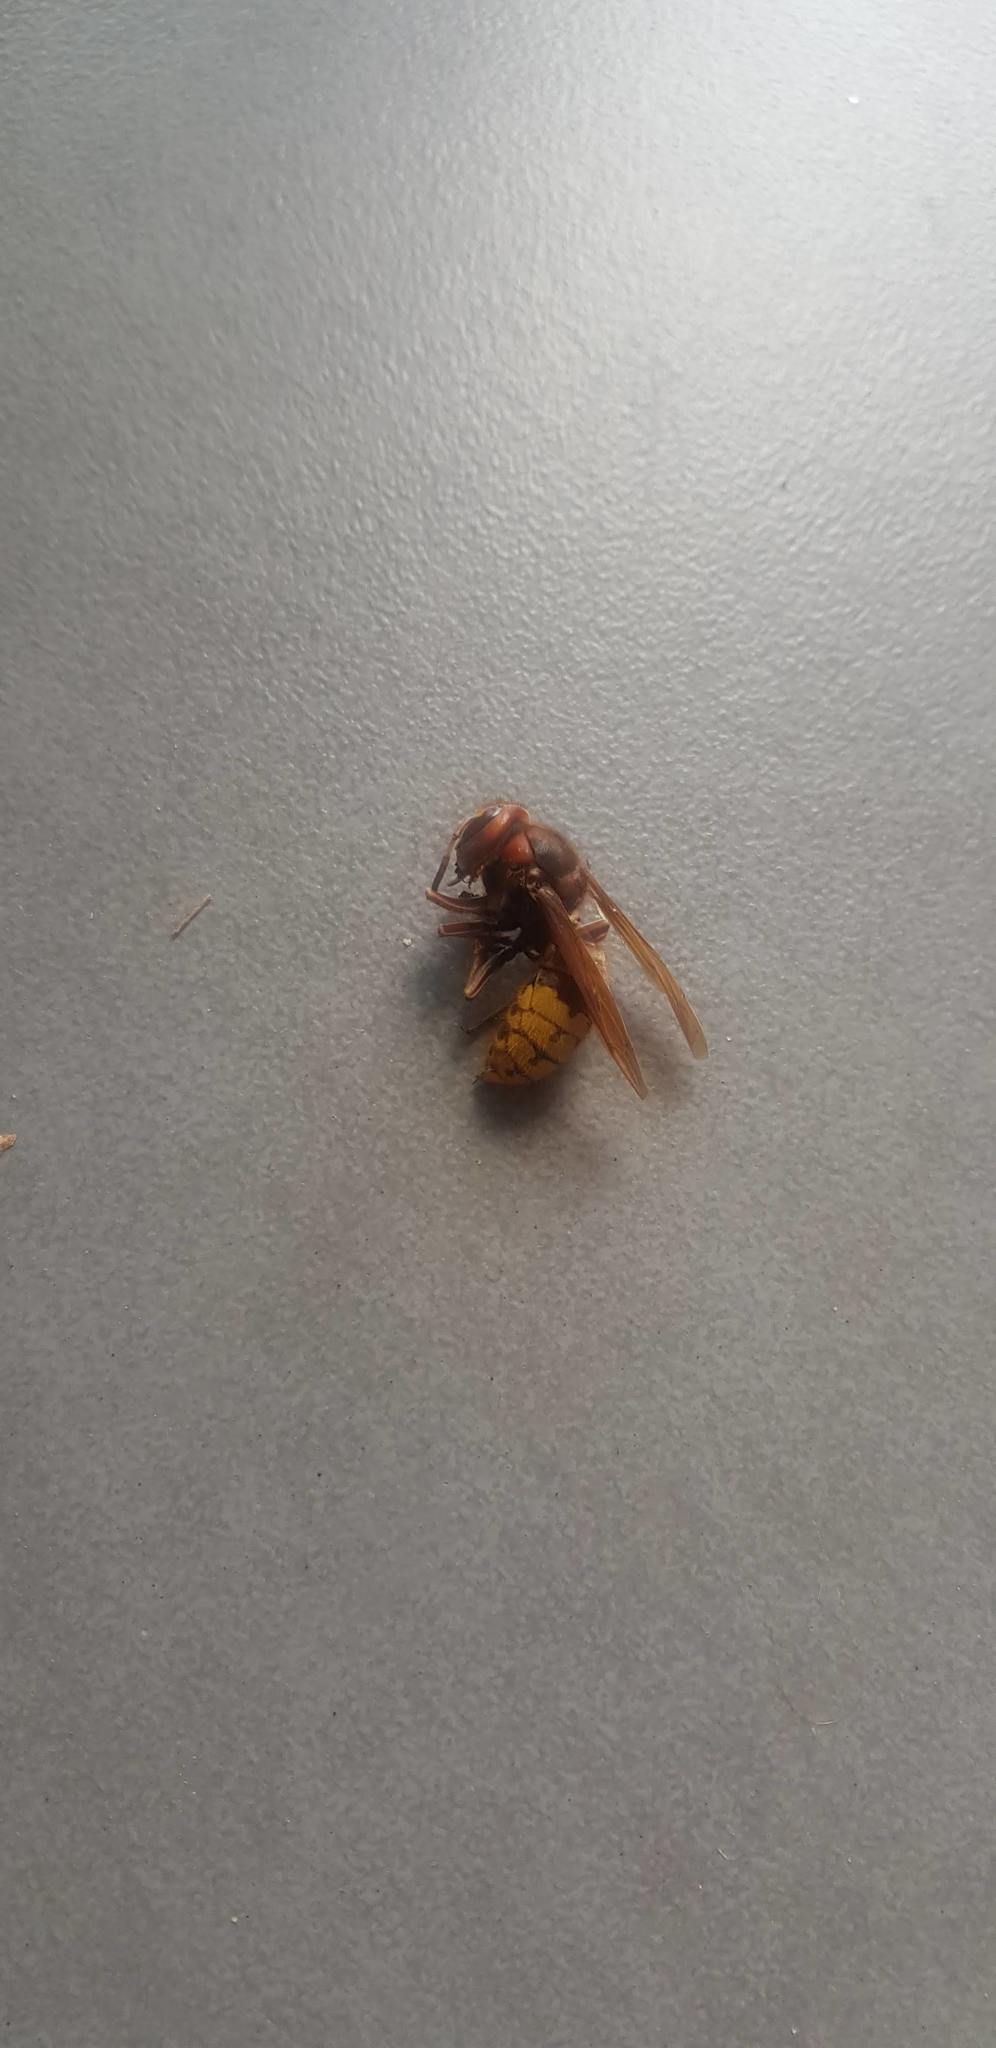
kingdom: Animalia
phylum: Arthropoda
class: Insecta
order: Hymenoptera
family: Vespidae
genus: Vespa
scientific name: Vespa crabro
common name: Hornet
